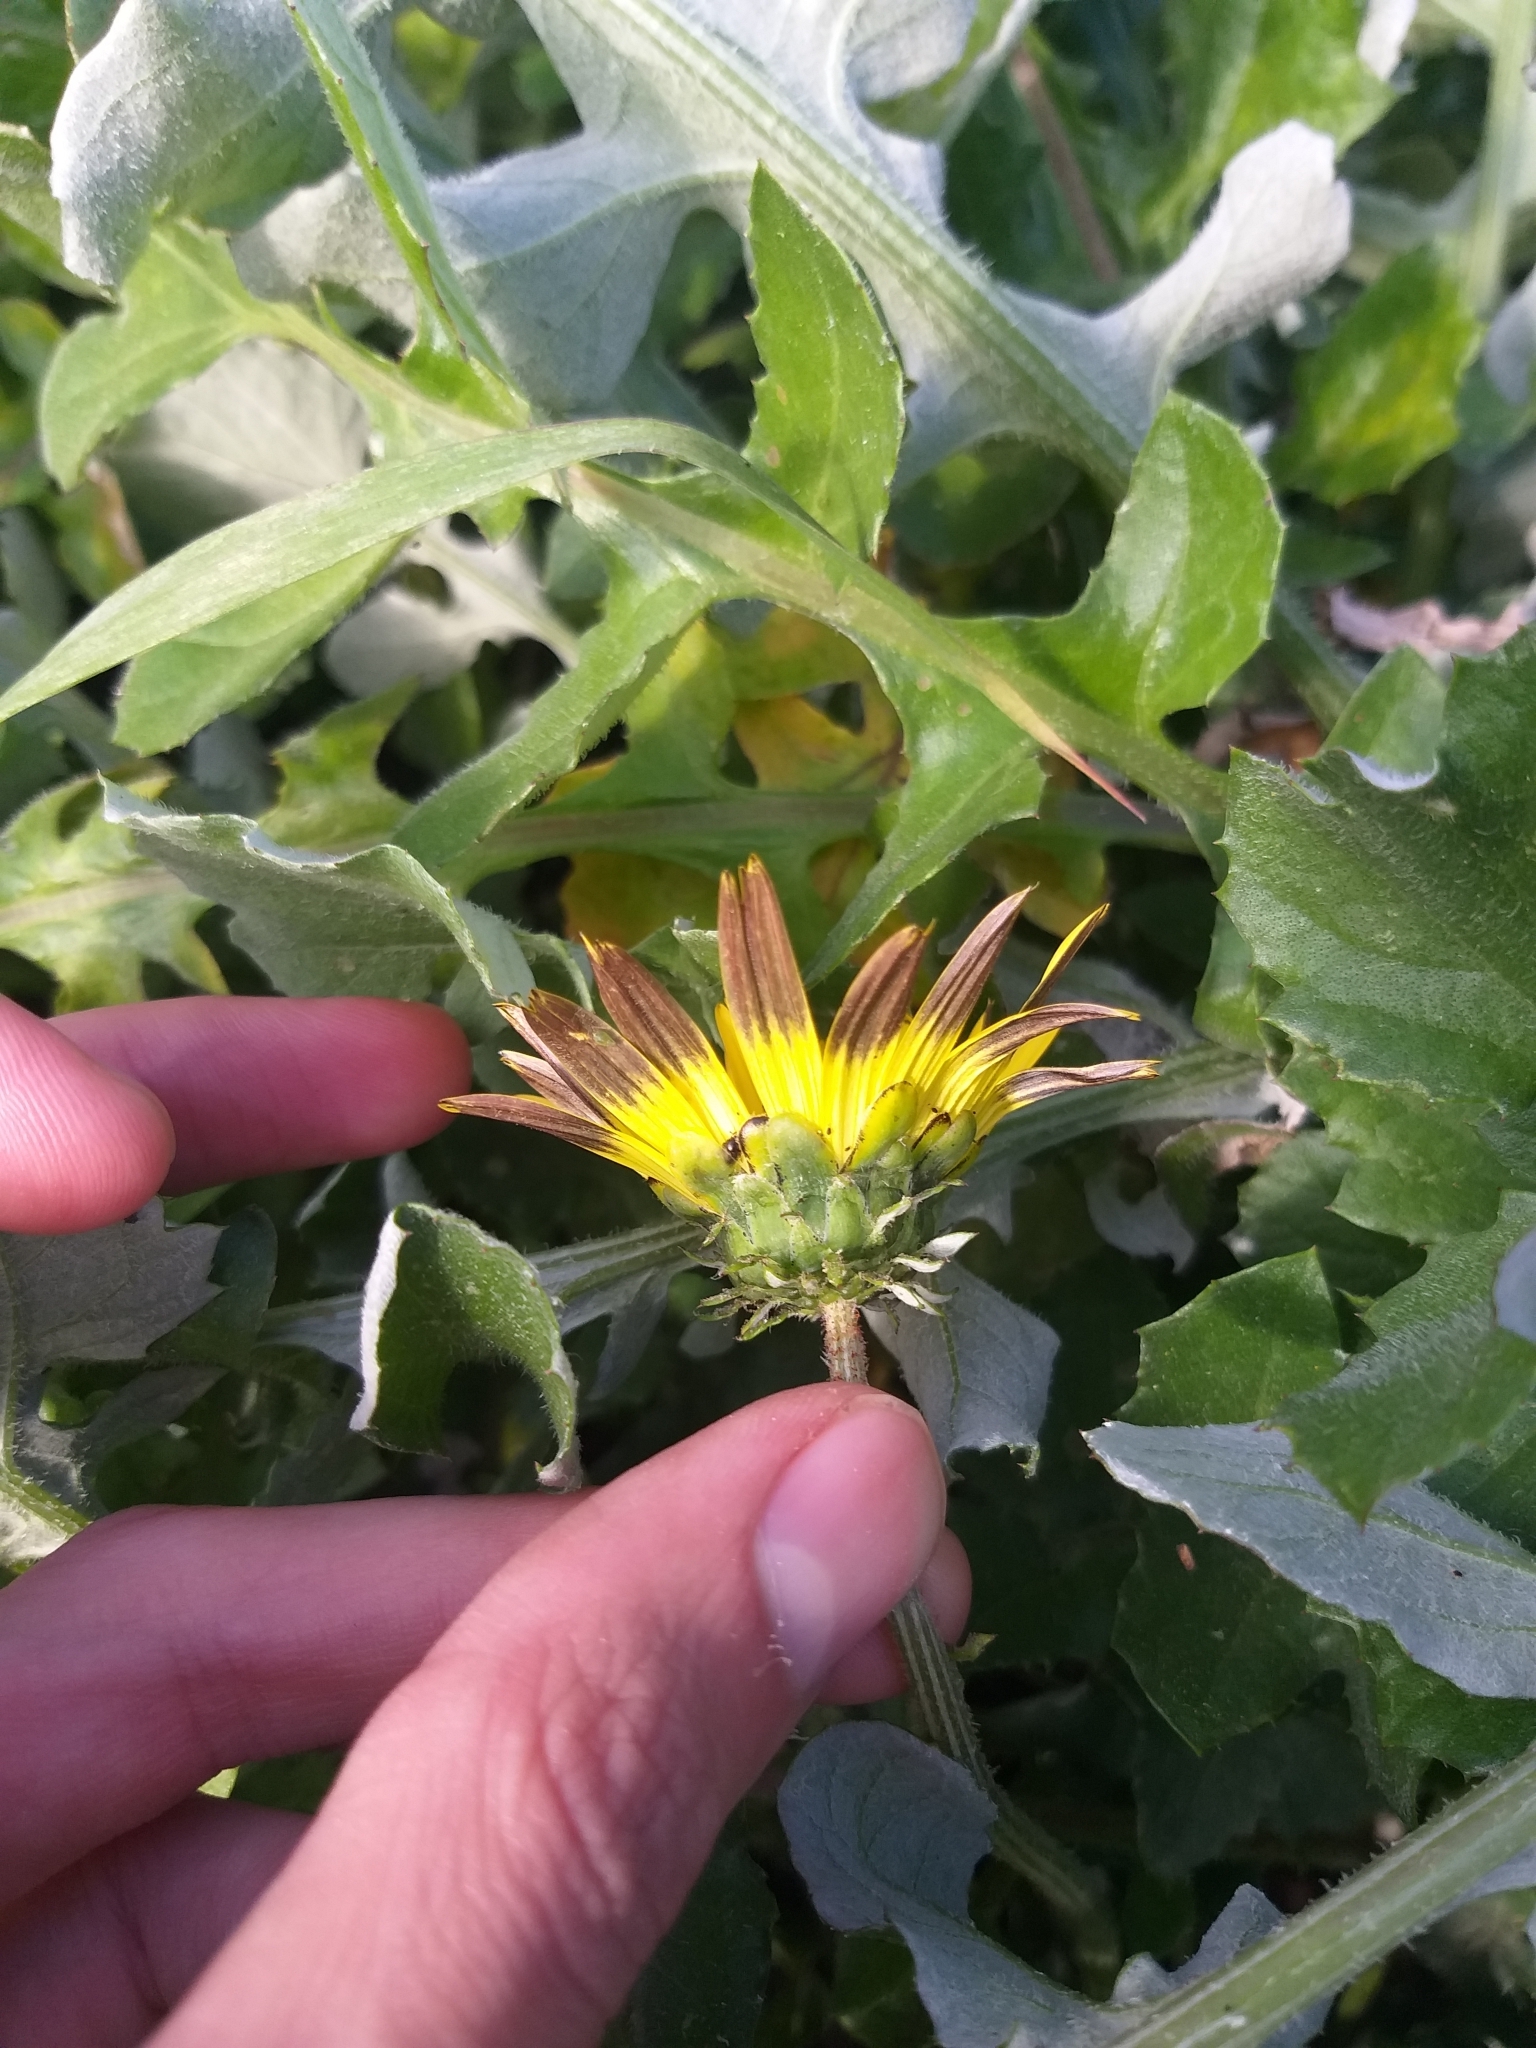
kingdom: Plantae
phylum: Tracheophyta
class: Magnoliopsida
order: Asterales
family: Asteraceae
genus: Arctotheca
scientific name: Arctotheca calendula
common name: Capeweed
